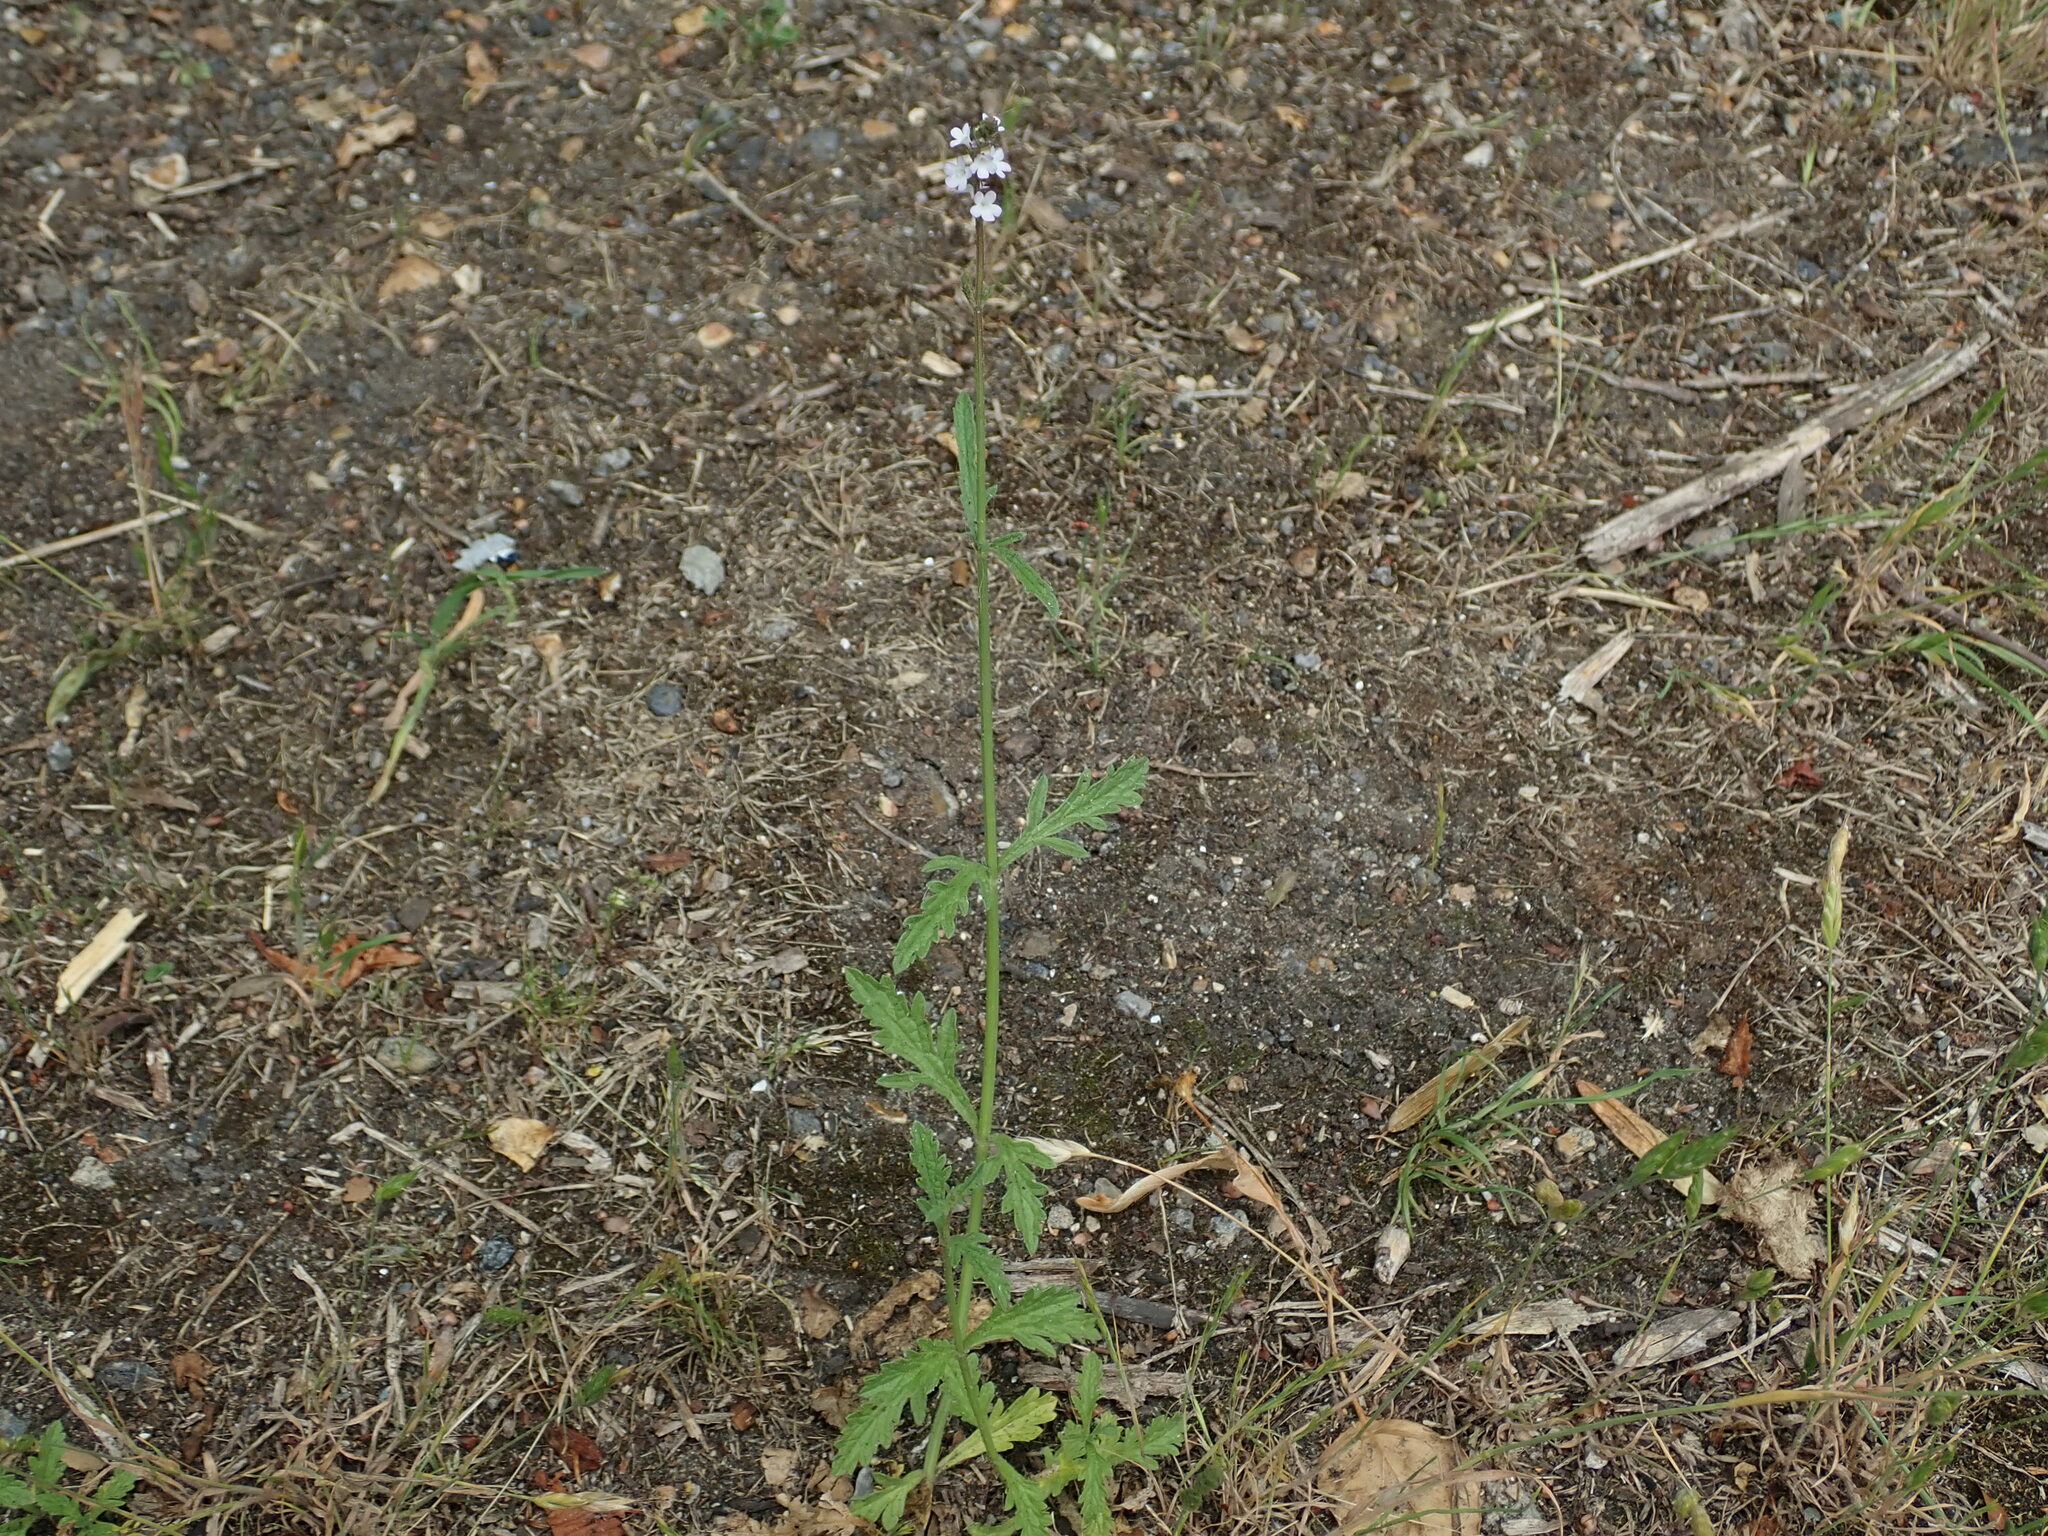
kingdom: Plantae
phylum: Tracheophyta
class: Magnoliopsida
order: Lamiales
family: Verbenaceae
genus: Verbena
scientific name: Verbena officinalis
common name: Vervain
